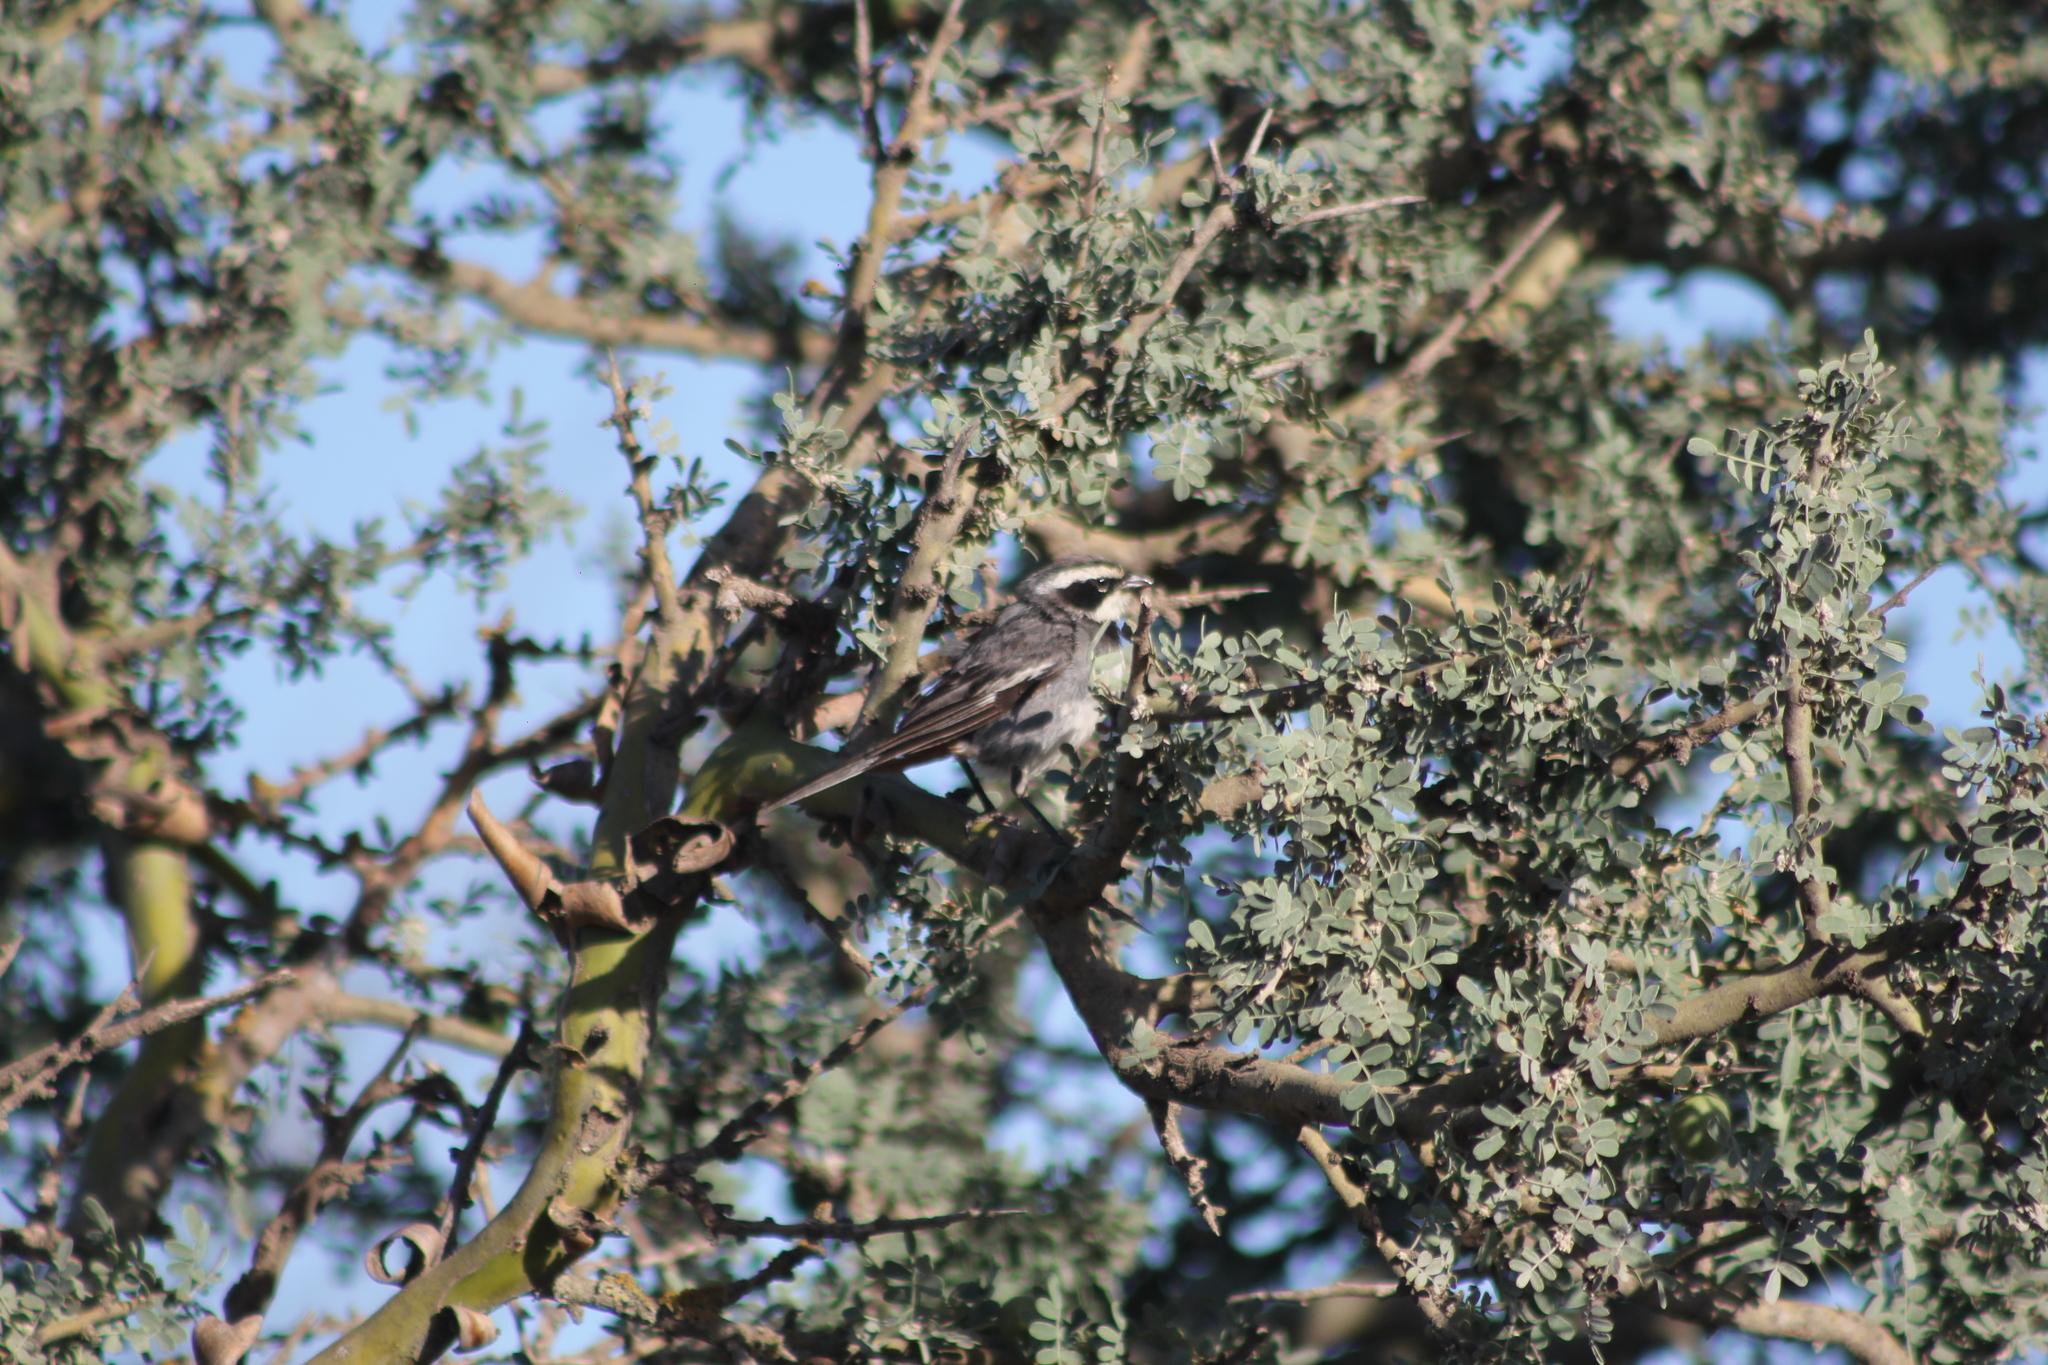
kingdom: Animalia
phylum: Chordata
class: Aves
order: Passeriformes
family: Thraupidae
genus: Microspingus
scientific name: Microspingus torquatus
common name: Ringed warbling-finch
